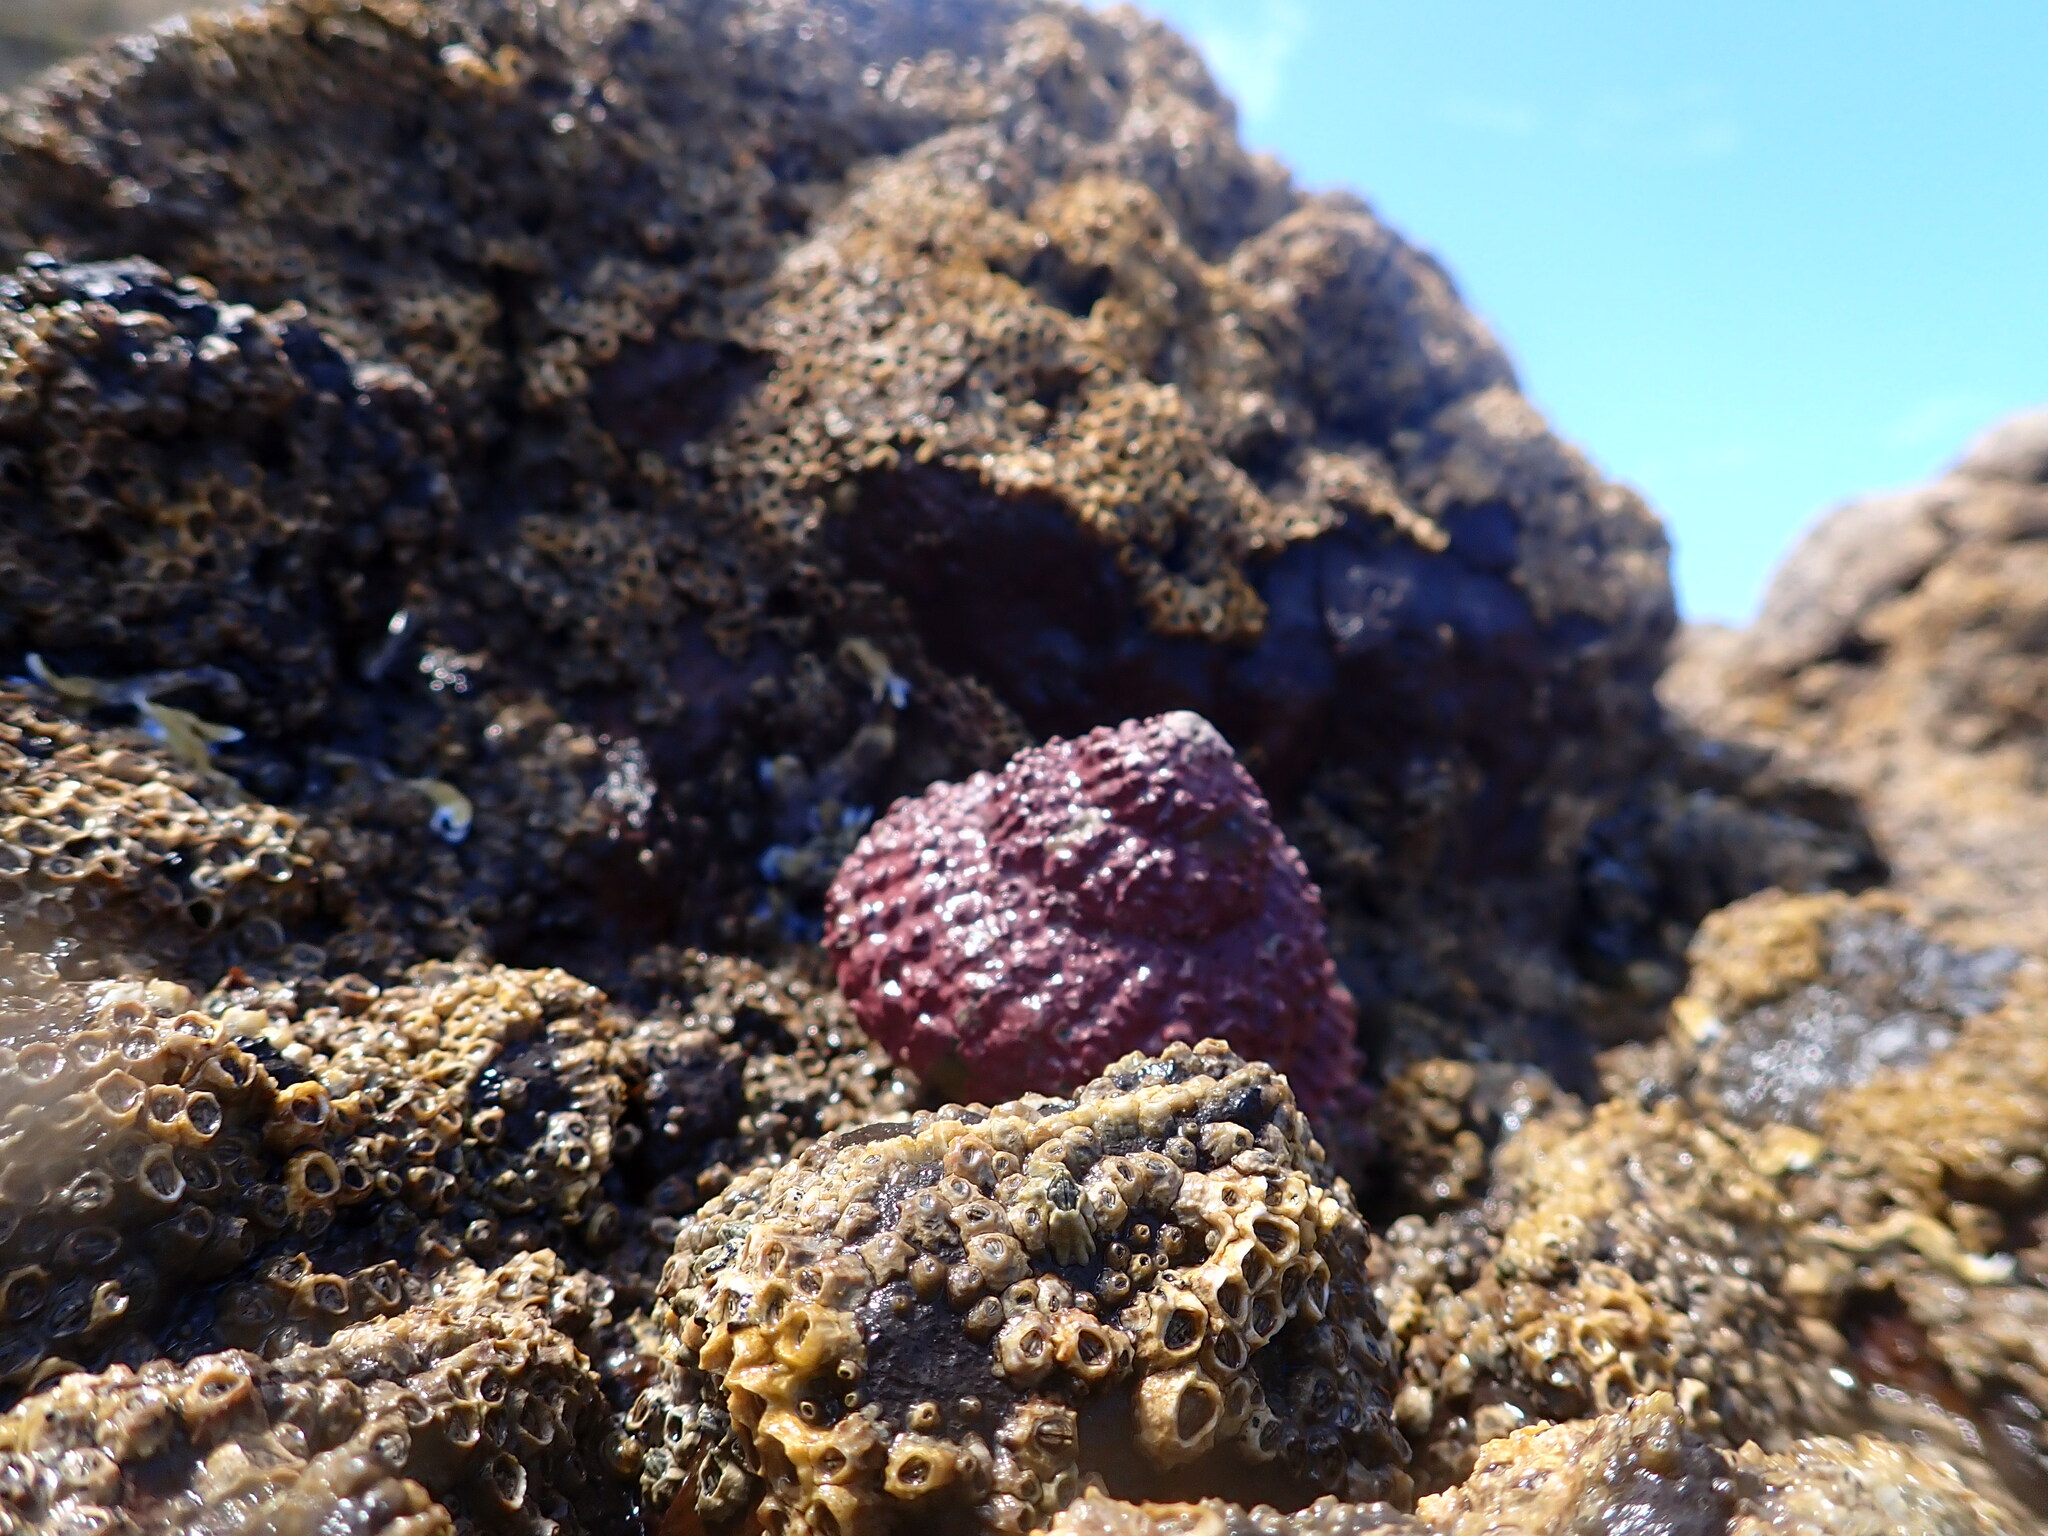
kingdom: Animalia
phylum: Mollusca
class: Gastropoda
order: Trochida
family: Turbinidae
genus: Cookia
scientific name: Cookia sulcata
